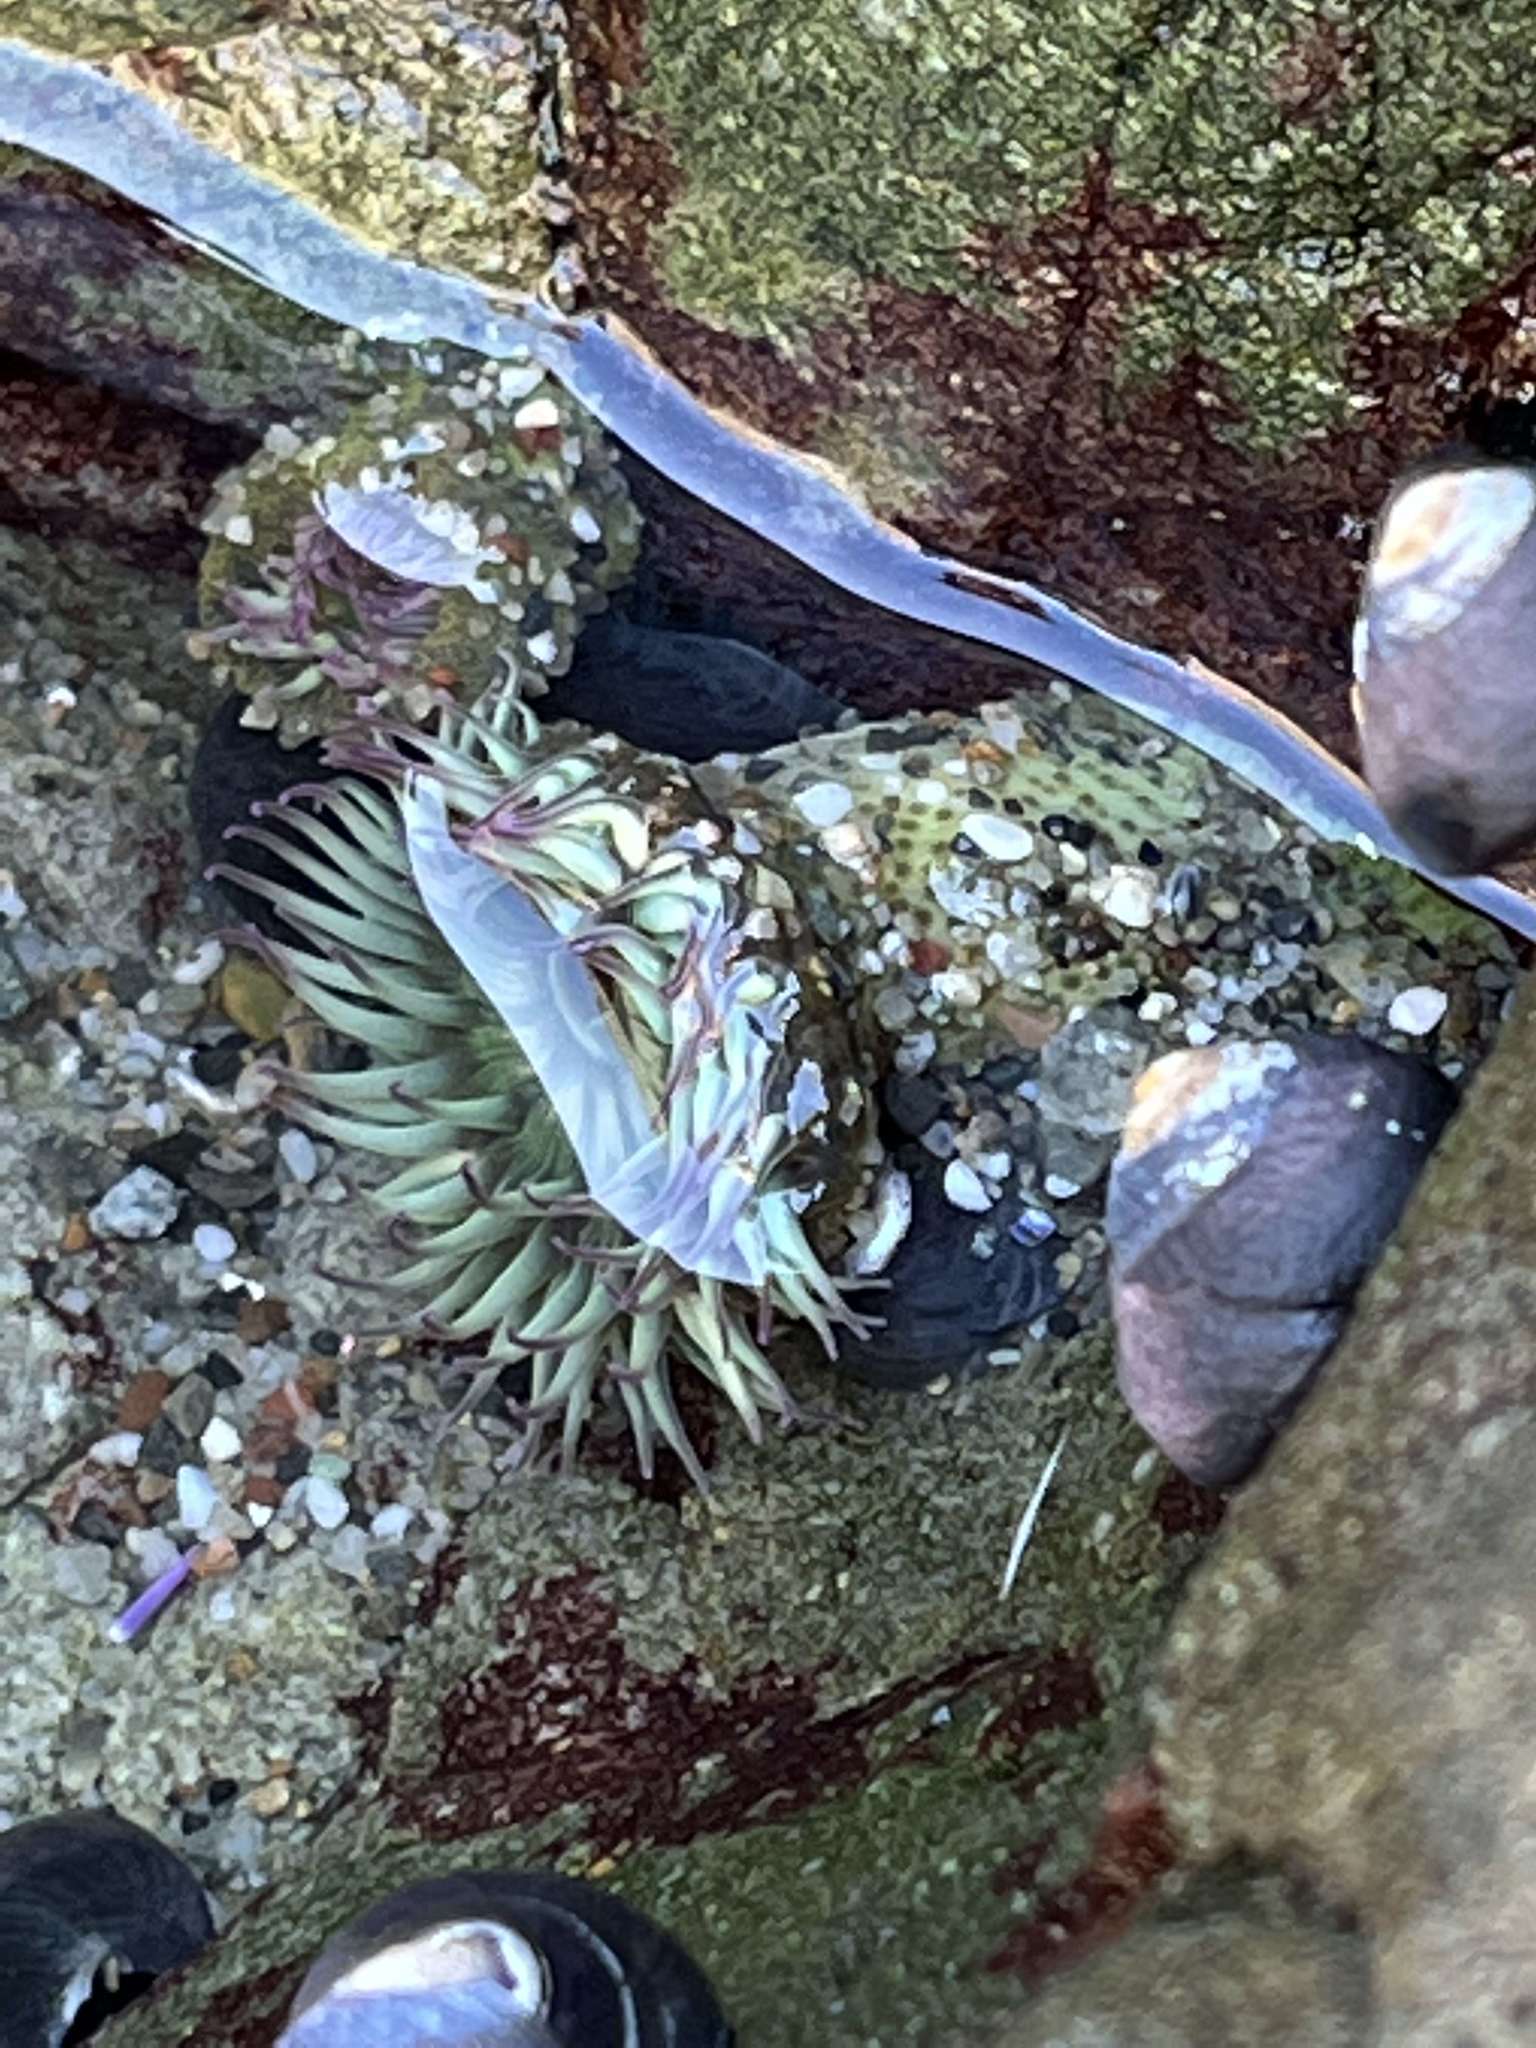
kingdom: Animalia
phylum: Cnidaria
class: Anthozoa
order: Actiniaria
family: Actiniidae
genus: Anthopleura
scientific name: Anthopleura elegantissima
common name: Clonal anemone
